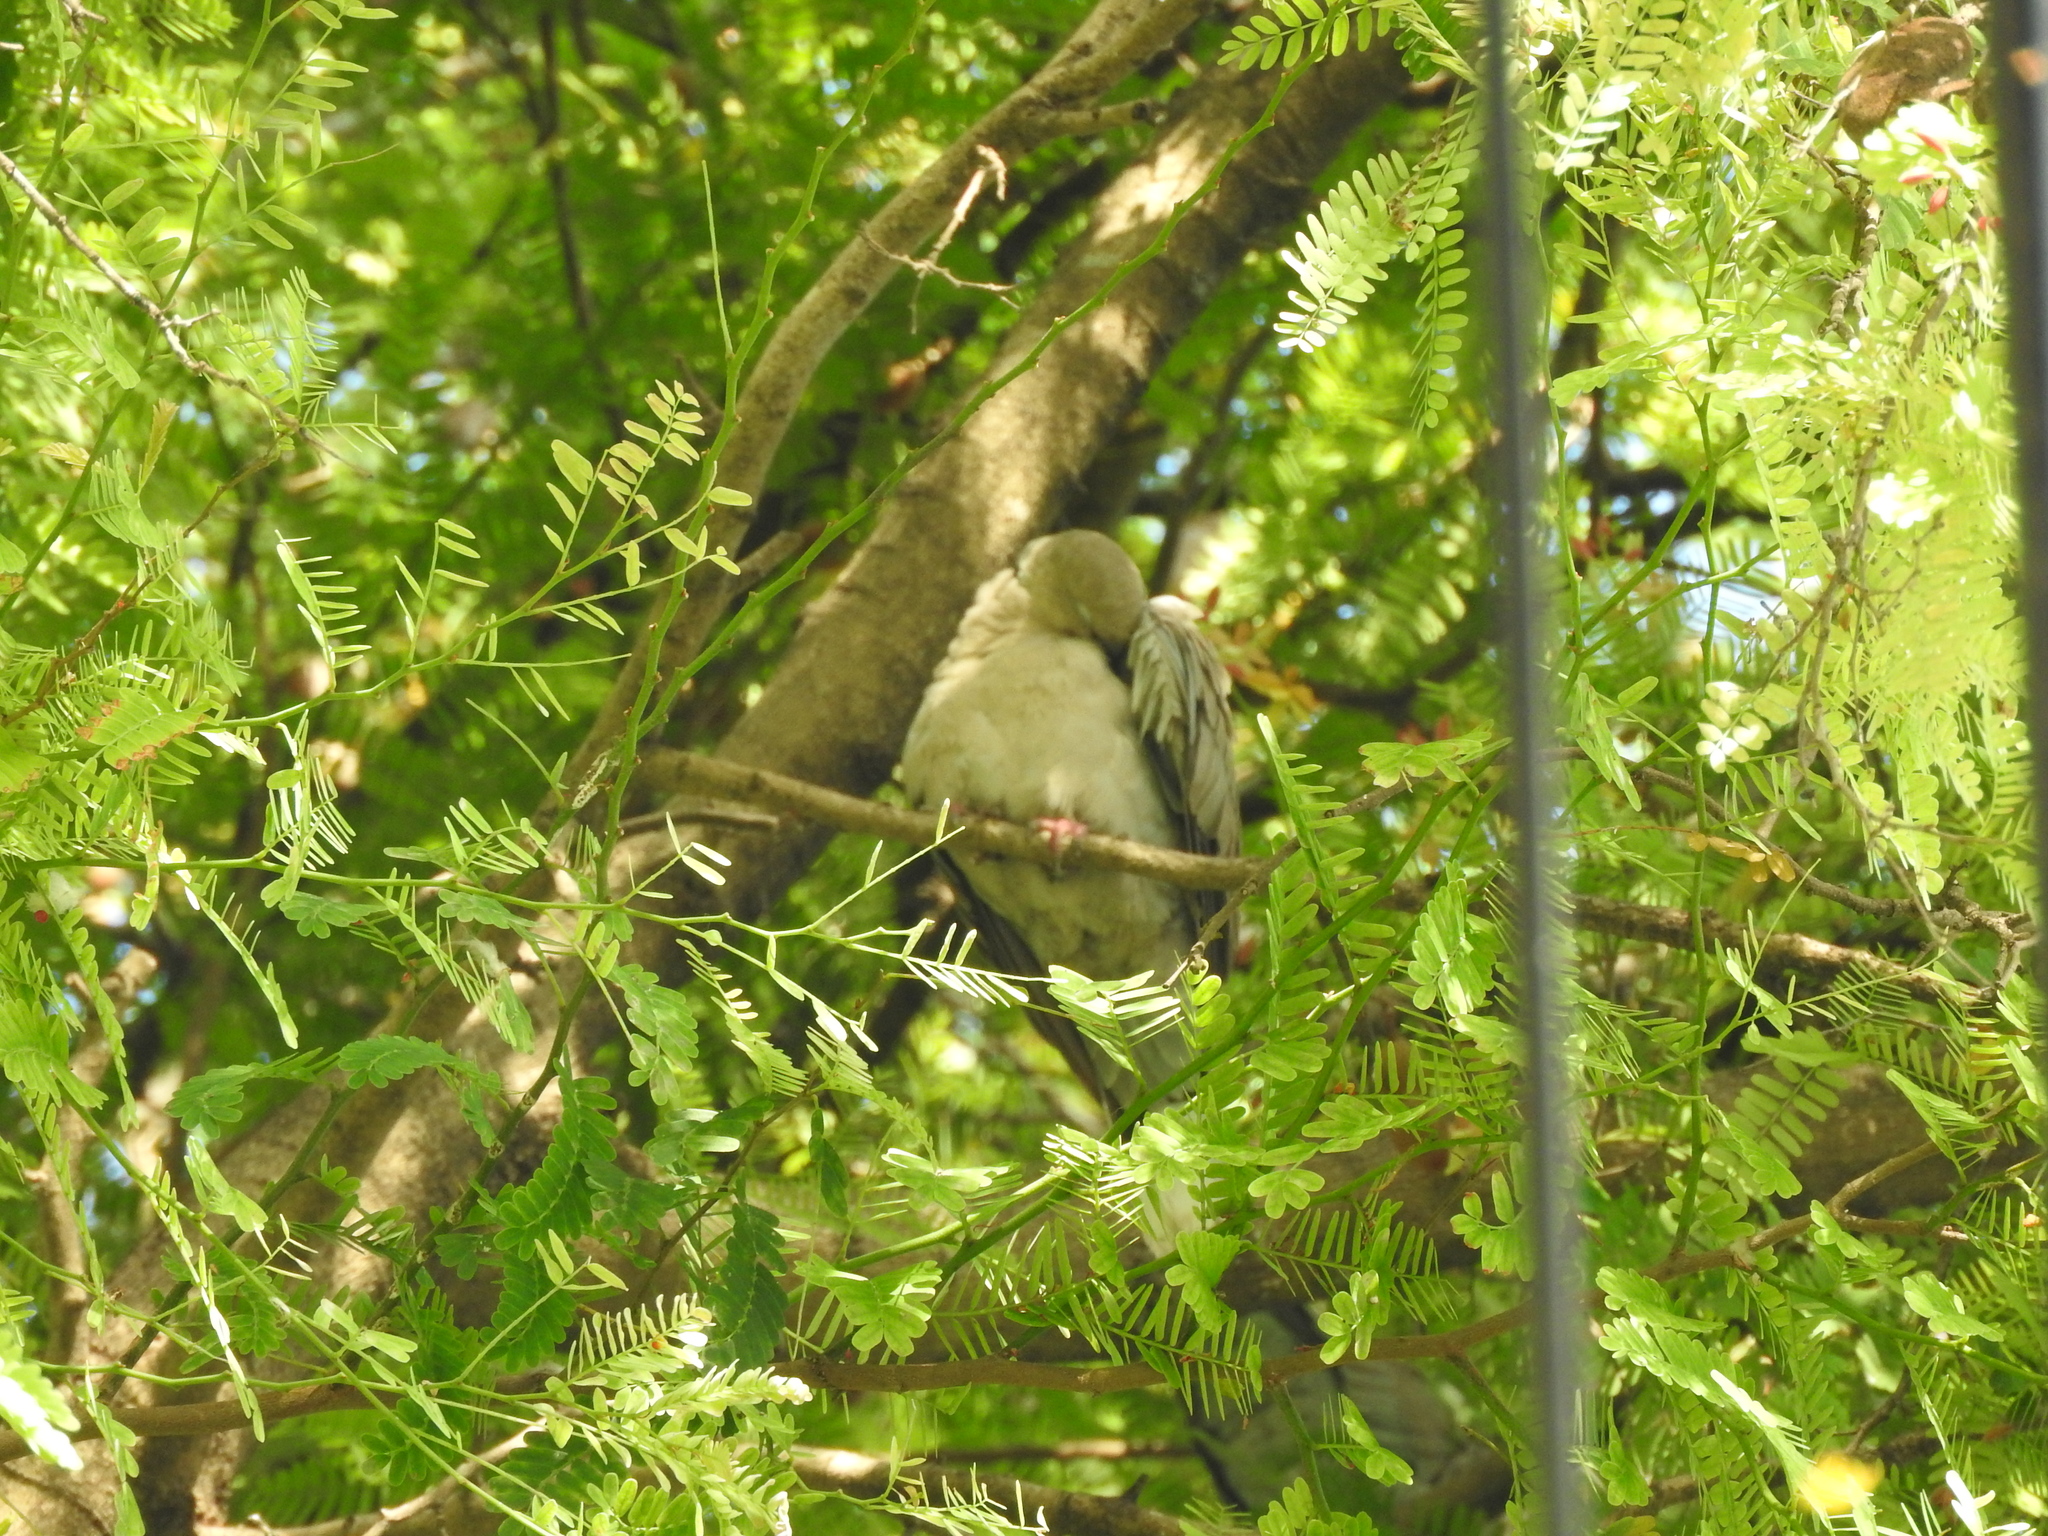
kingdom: Animalia
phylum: Chordata
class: Aves
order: Columbiformes
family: Columbidae
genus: Streptopelia
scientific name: Streptopelia decaocto
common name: Eurasian collared dove
